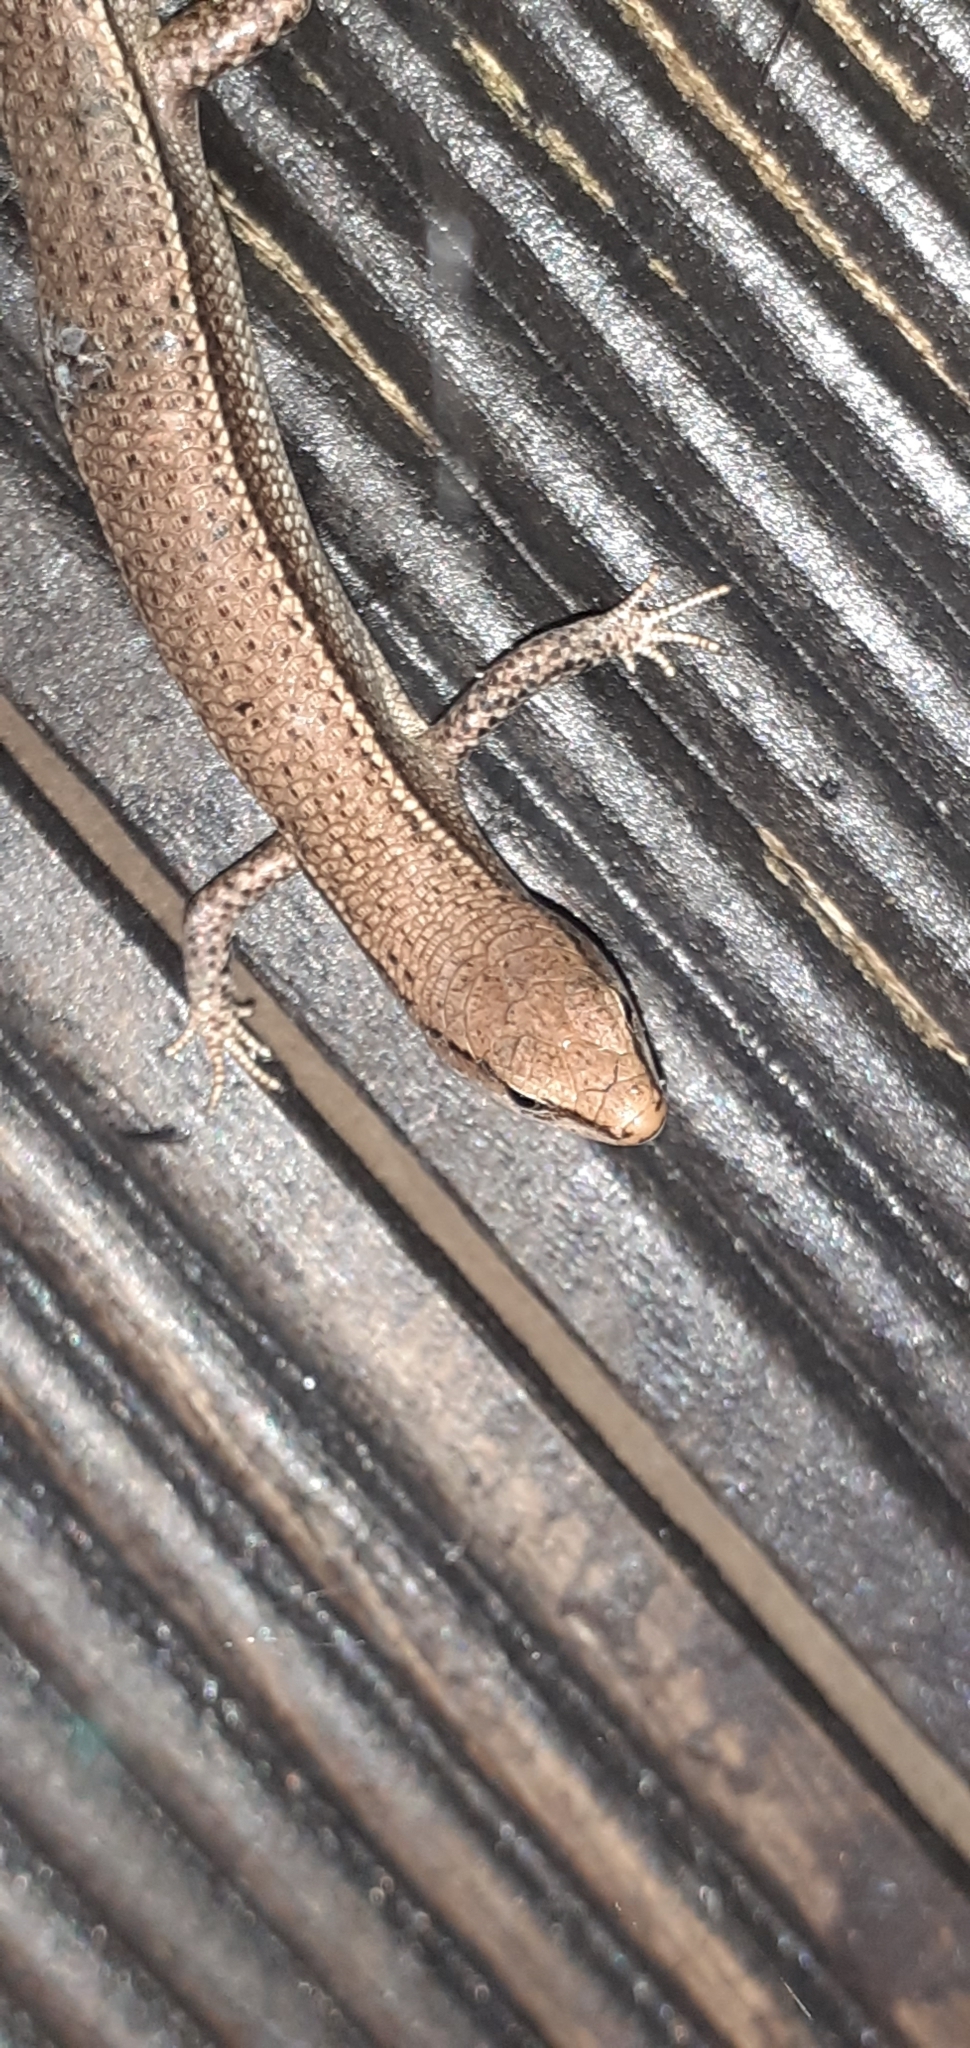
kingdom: Animalia
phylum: Chordata
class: Squamata
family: Scincidae
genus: Lampropholis
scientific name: Lampropholis delicata
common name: Plague skink
